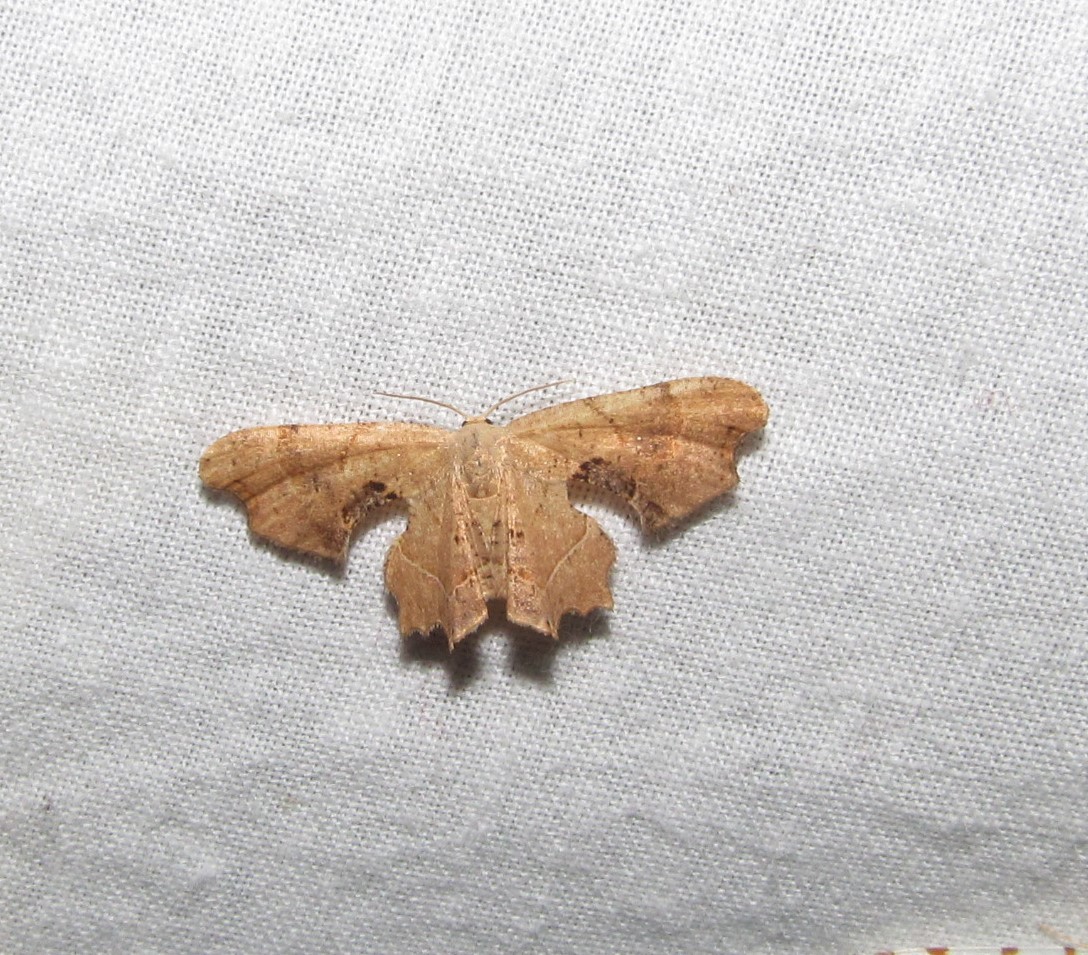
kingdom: Animalia
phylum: Arthropoda
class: Insecta
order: Lepidoptera
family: Uraniidae
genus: Epiplema
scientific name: Epiplema Calledapteryx dryopterata
